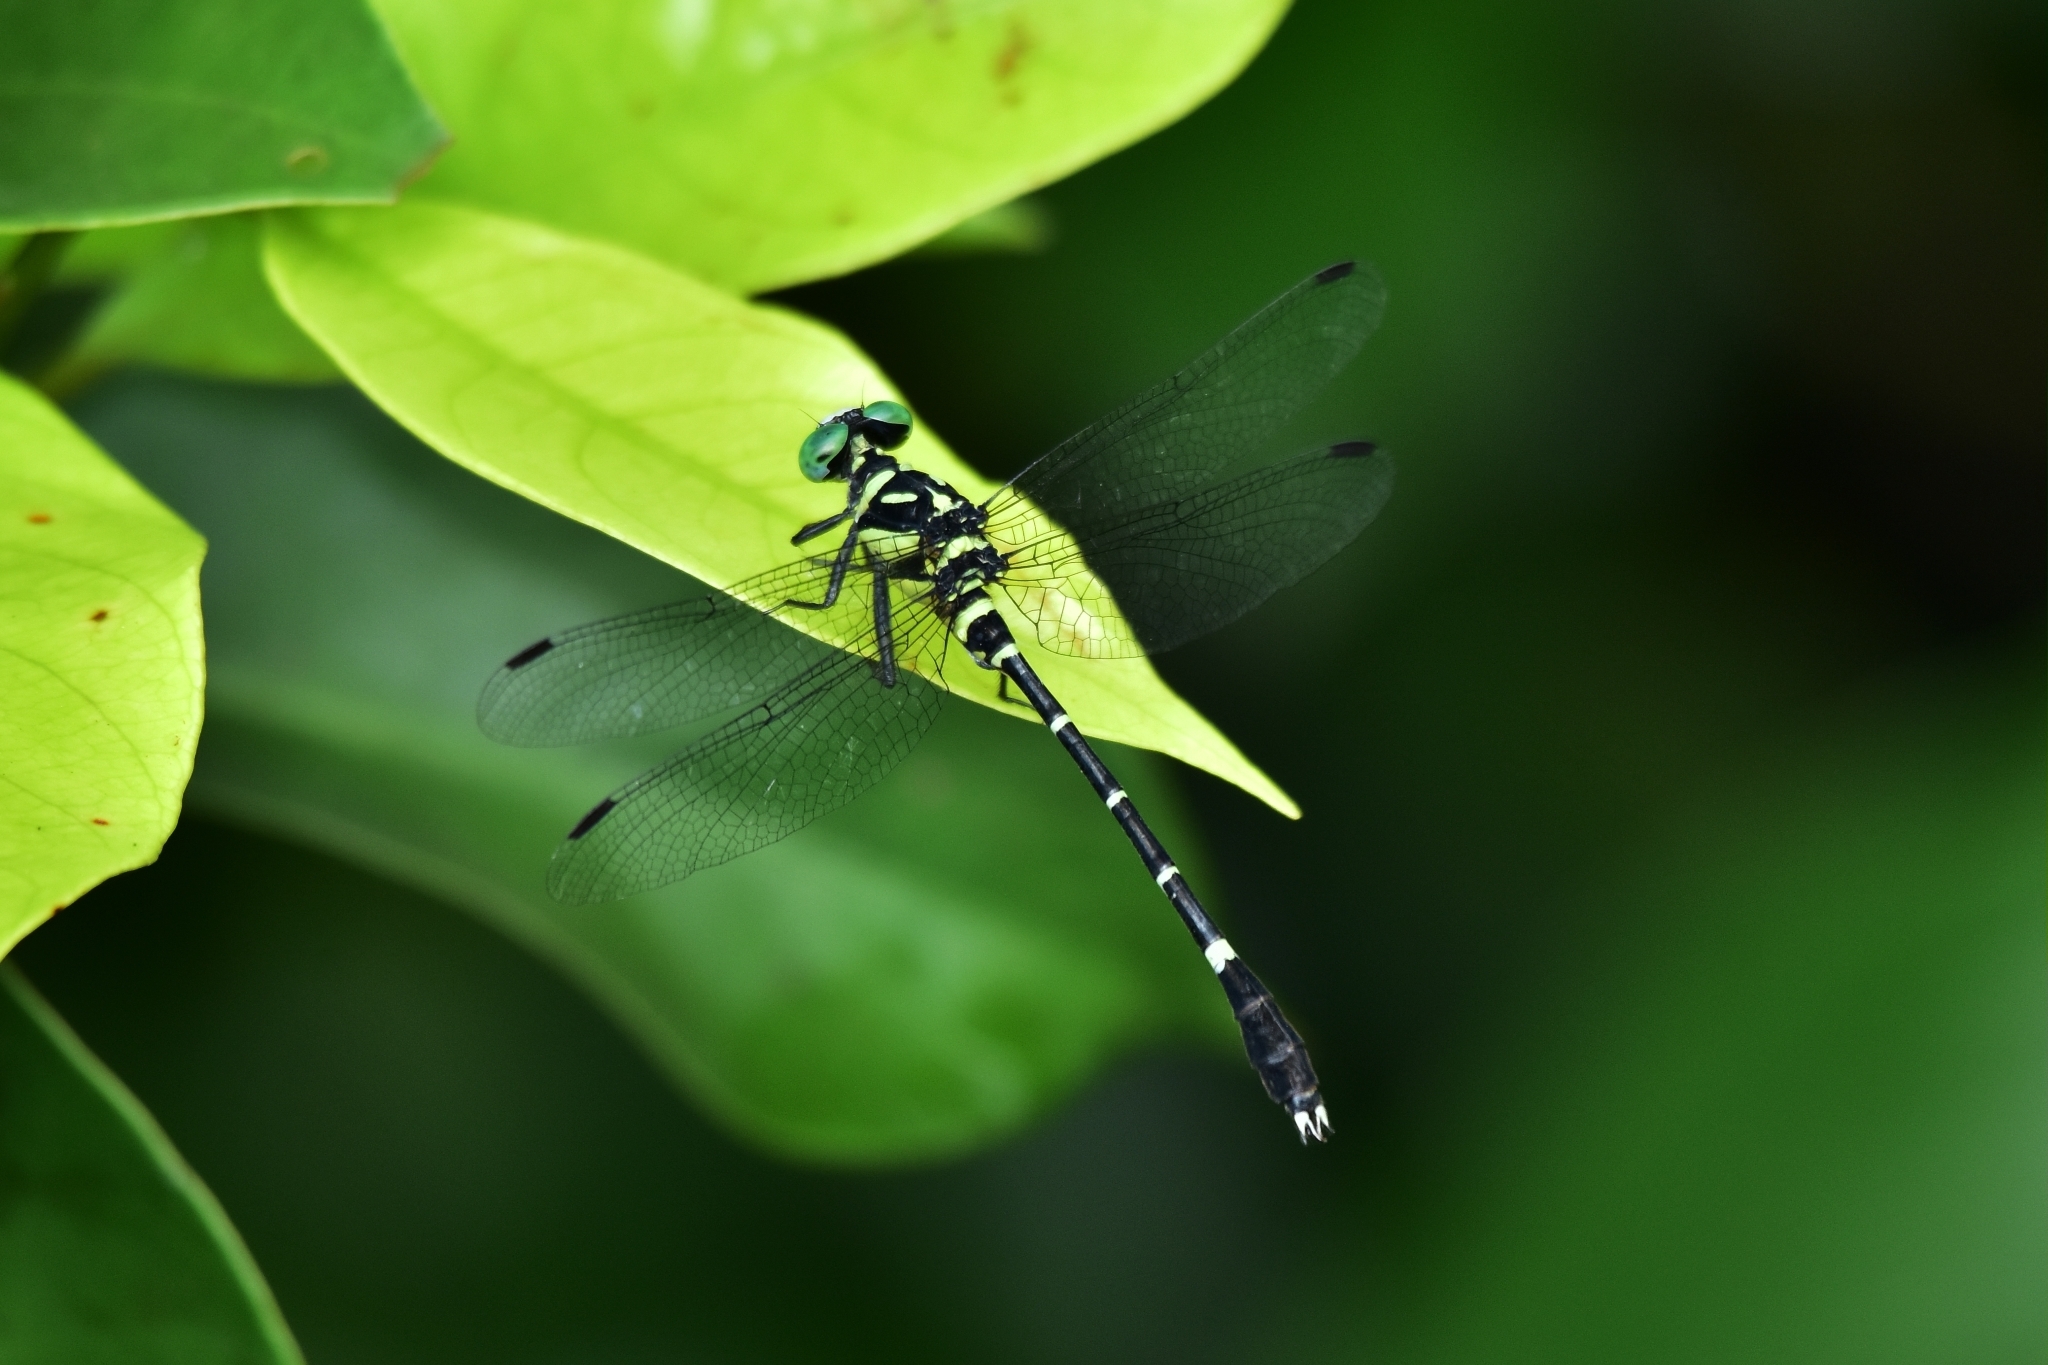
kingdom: Animalia
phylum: Arthropoda
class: Insecta
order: Odonata
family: Gomphidae
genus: Microgomphus
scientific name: Microgomphus souteri
